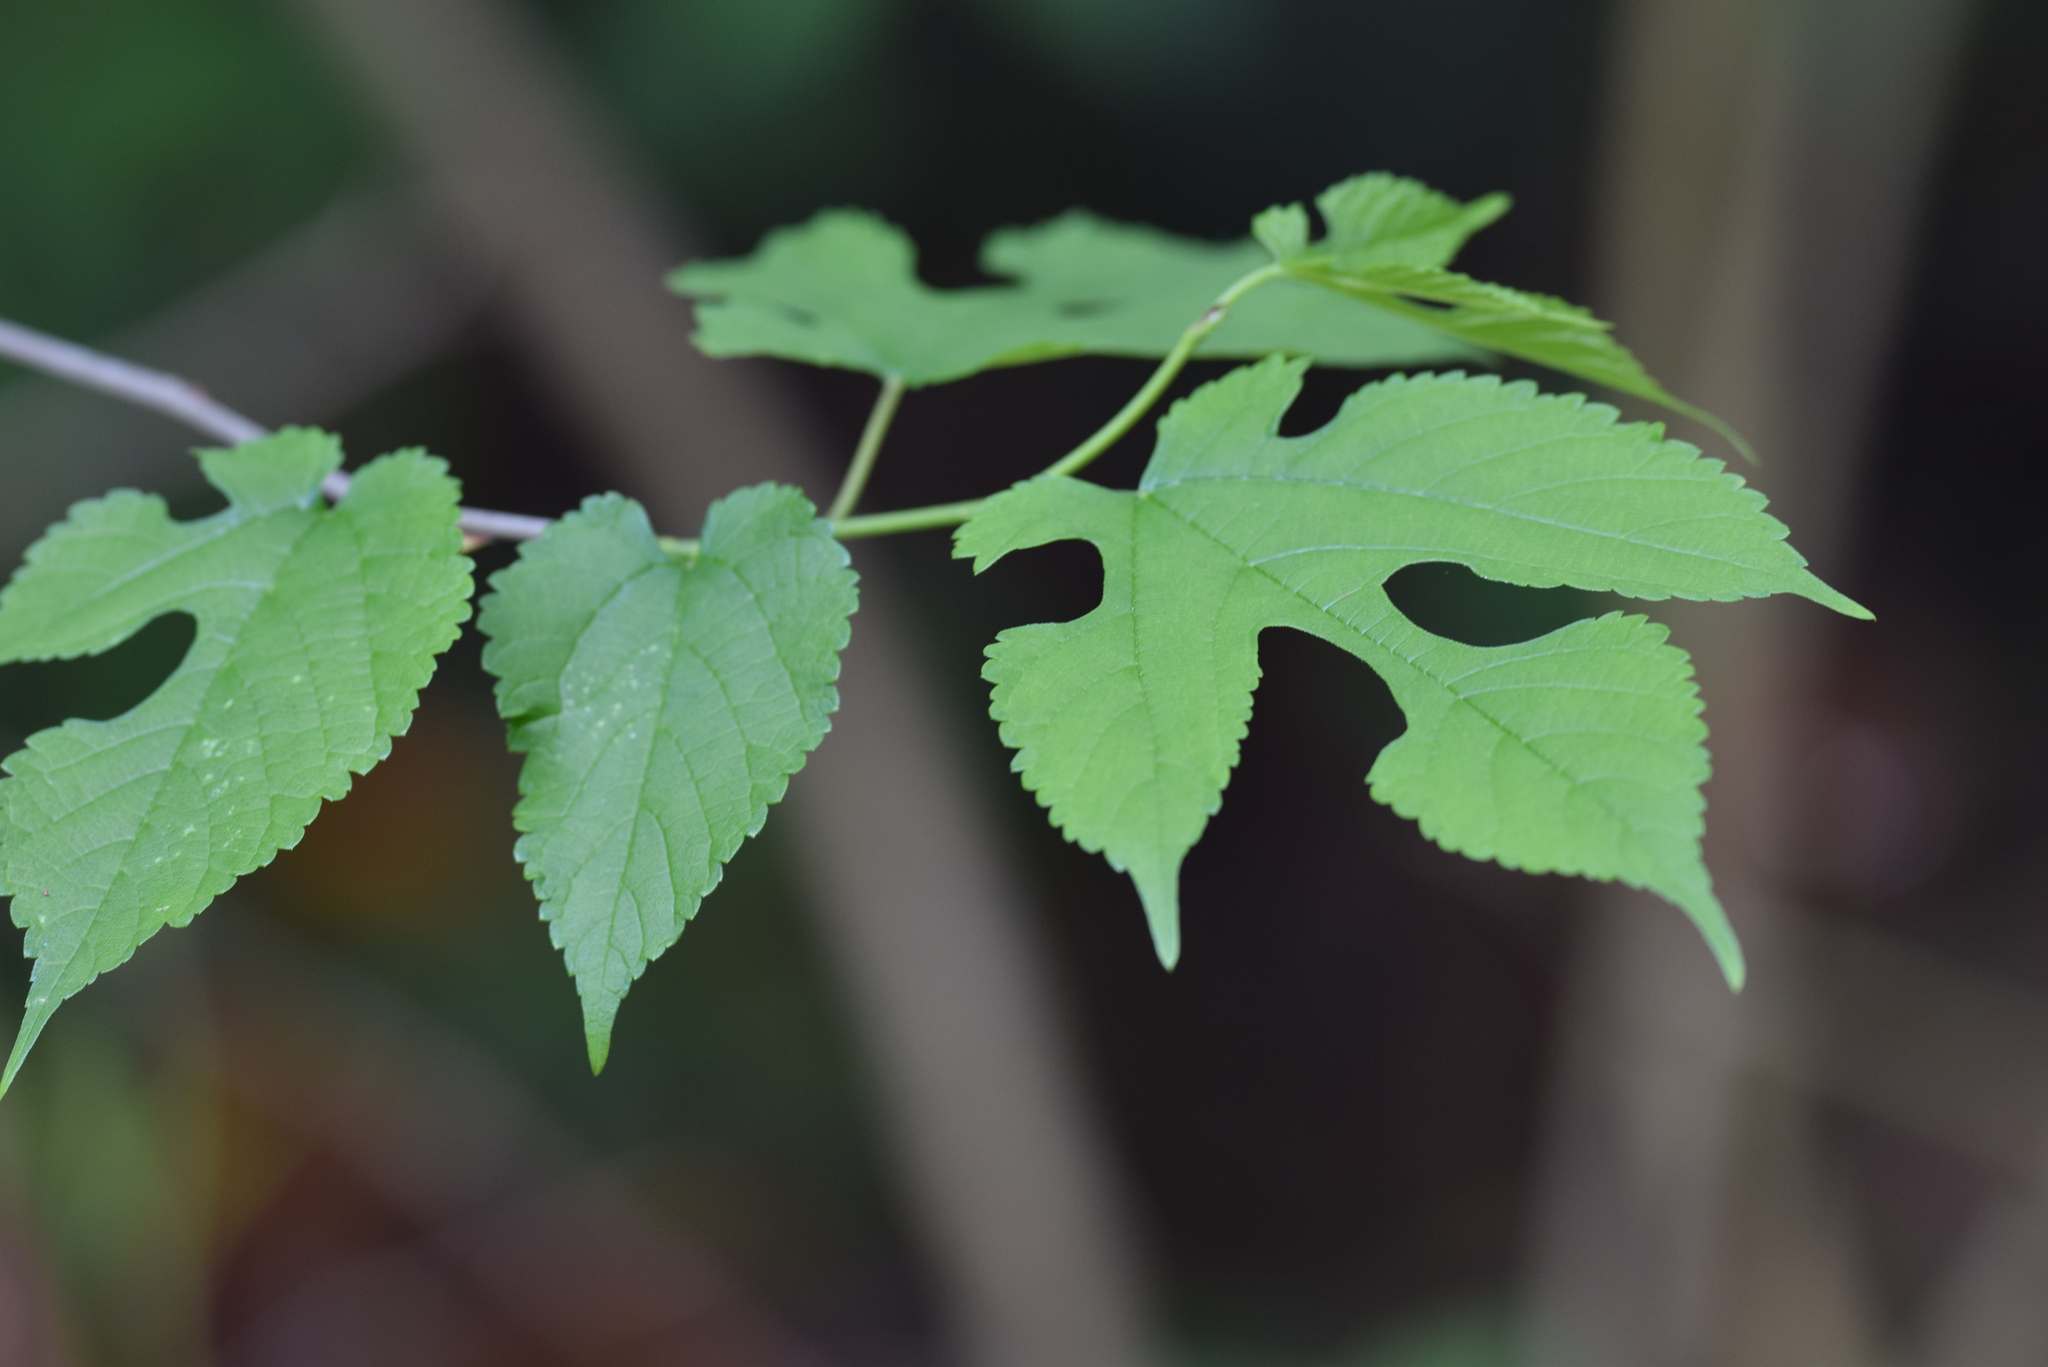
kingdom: Plantae
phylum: Tracheophyta
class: Magnoliopsida
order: Rosales
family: Moraceae
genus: Morus
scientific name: Morus rubra
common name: Red mulberry
